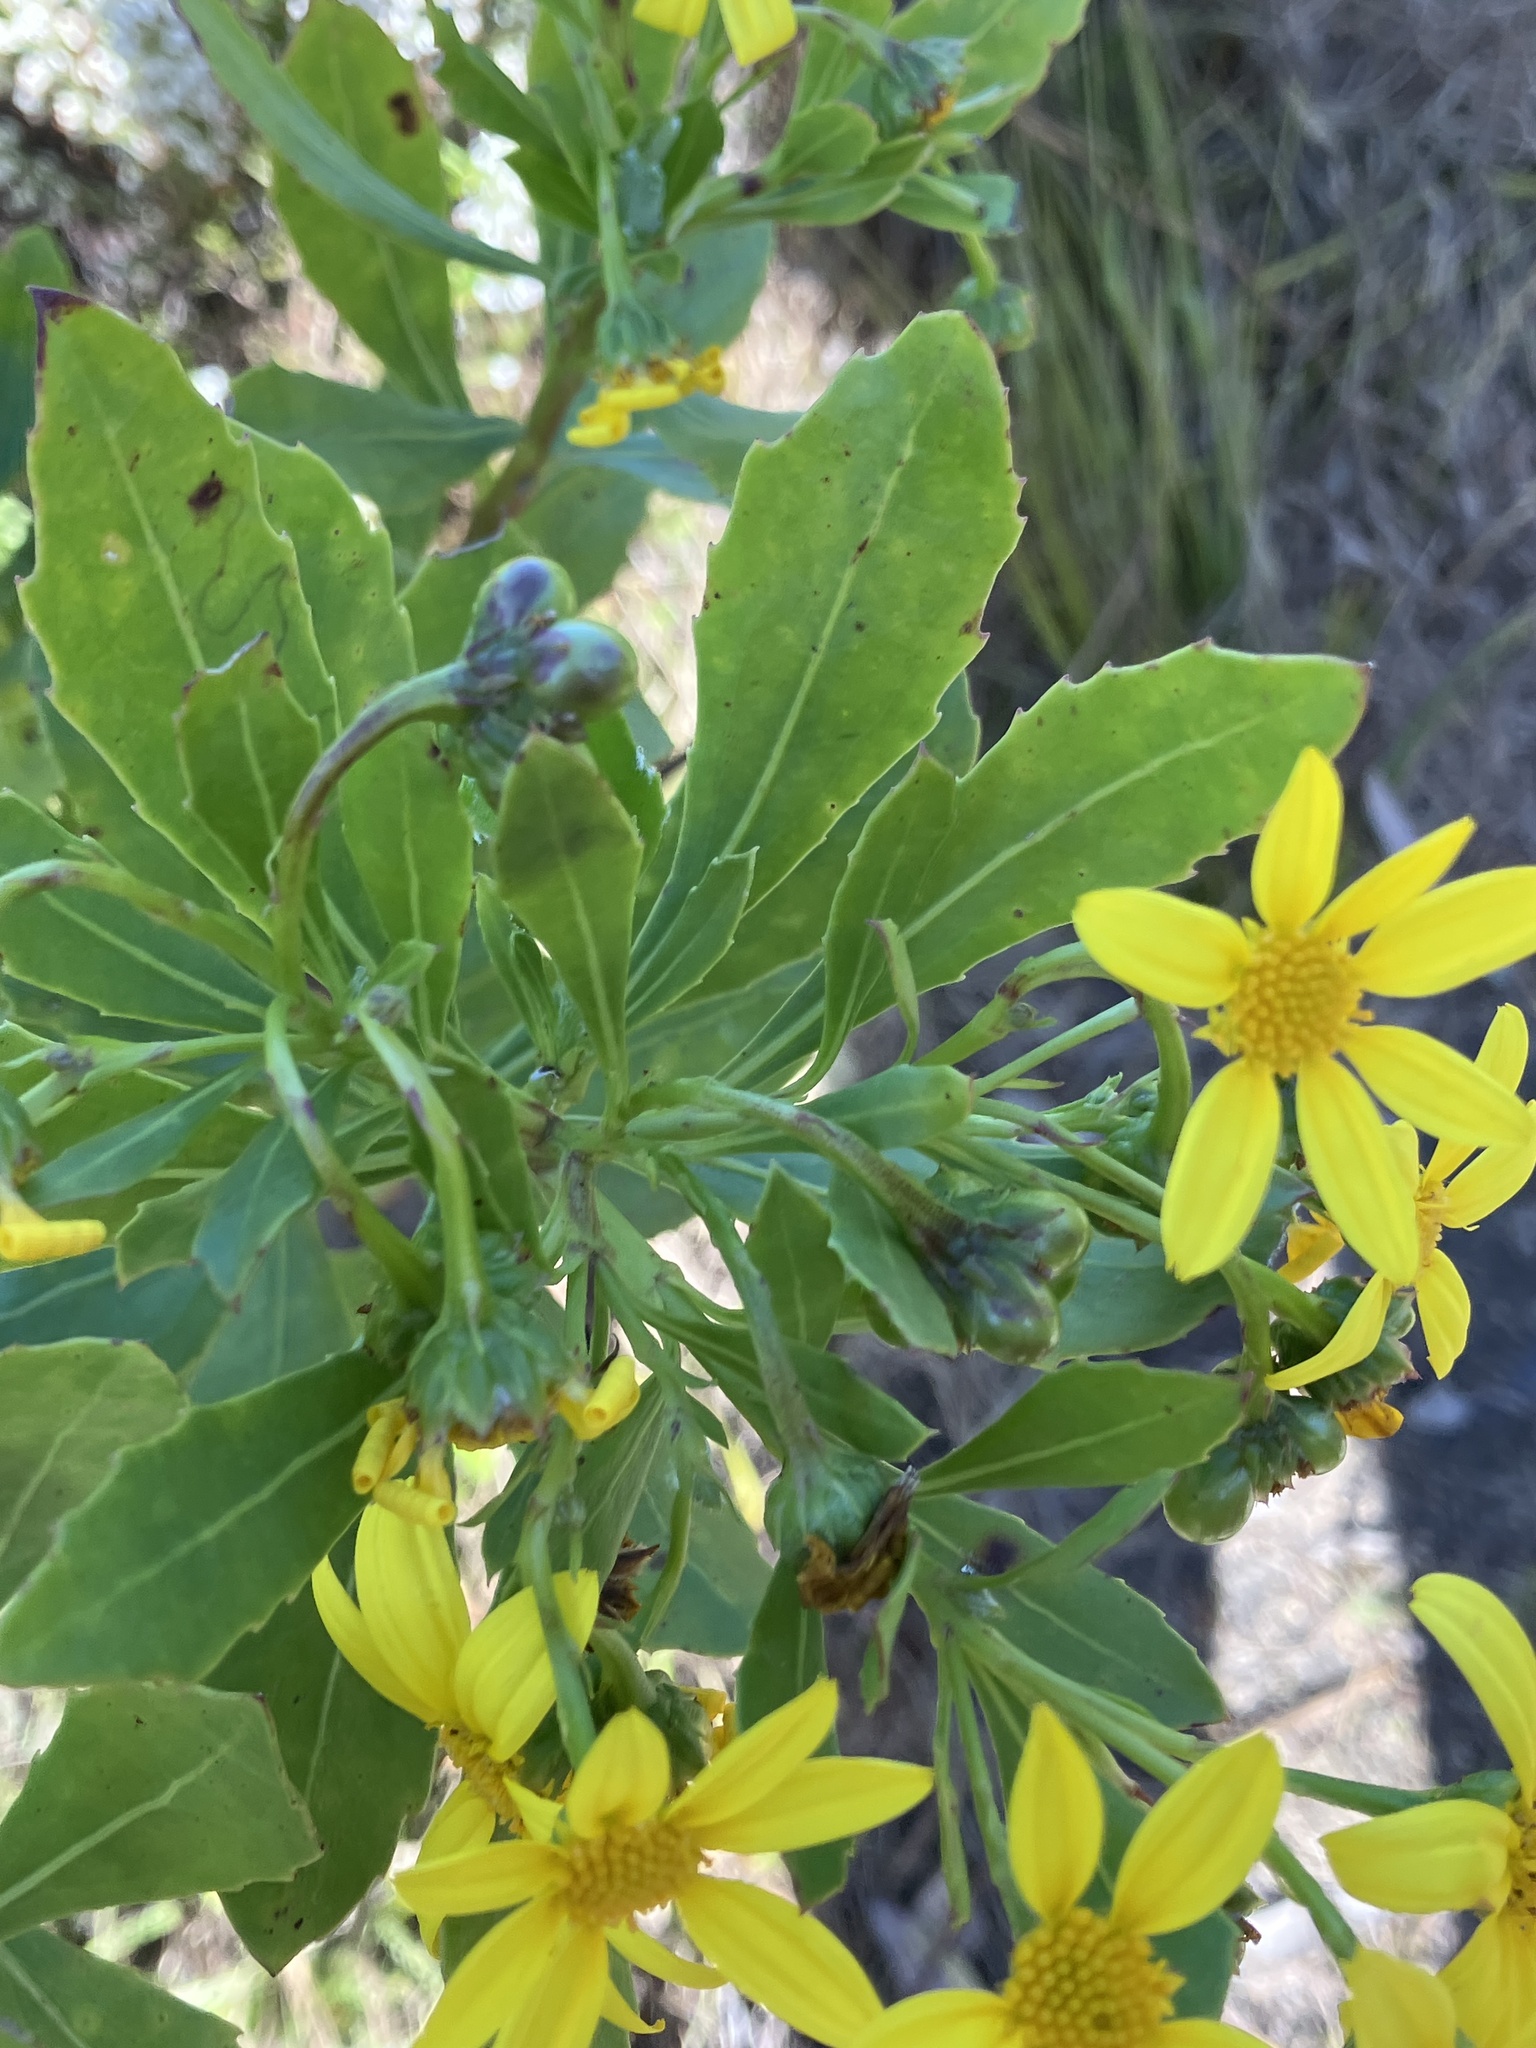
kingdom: Plantae
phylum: Tracheophyta
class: Magnoliopsida
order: Asterales
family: Asteraceae
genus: Osteospermum
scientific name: Osteospermum moniliferum
